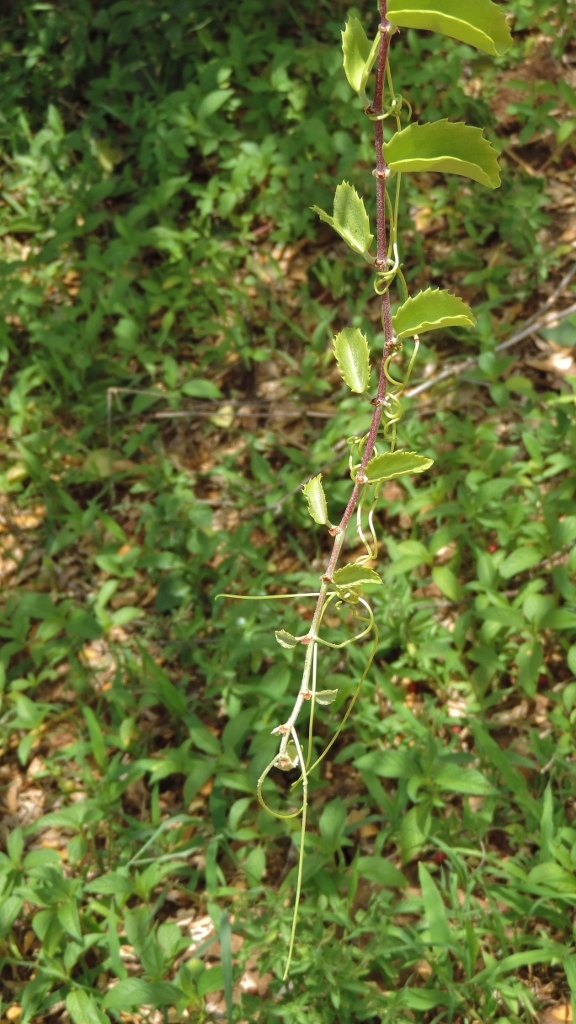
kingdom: Plantae
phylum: Tracheophyta
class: Magnoliopsida
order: Vitales
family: Vitaceae
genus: Cissus
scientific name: Cissus rotundifolia
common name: Arabian wax cissus
